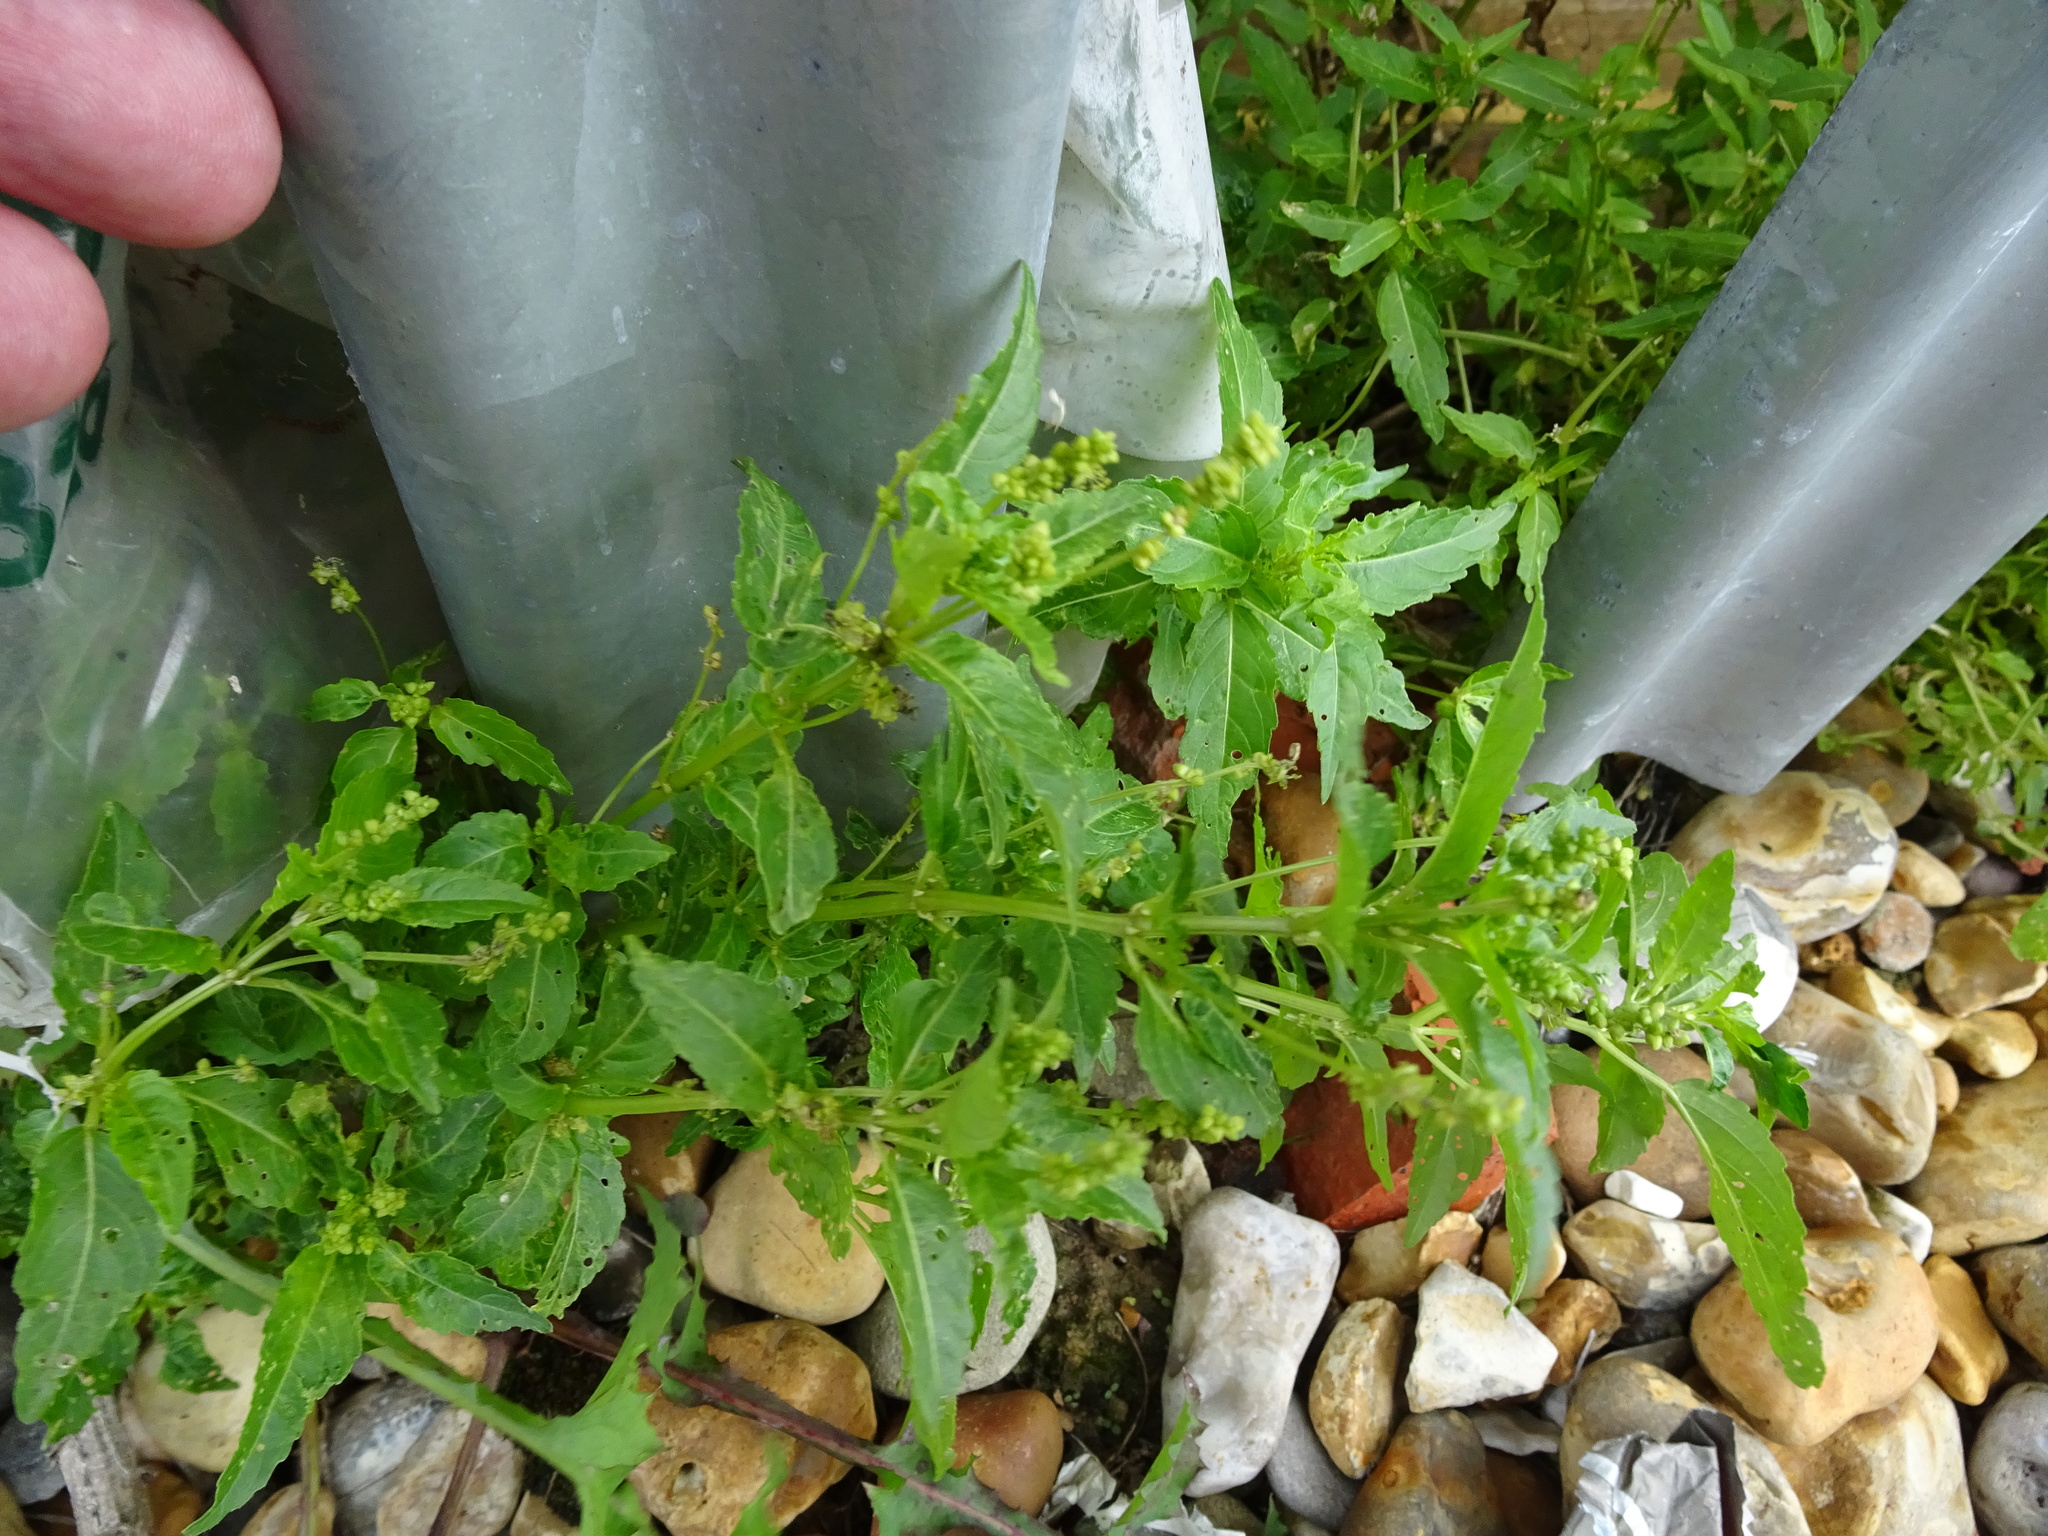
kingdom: Plantae
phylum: Tracheophyta
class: Magnoliopsida
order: Malpighiales
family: Euphorbiaceae
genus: Mercurialis
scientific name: Mercurialis annua
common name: Annual mercury
